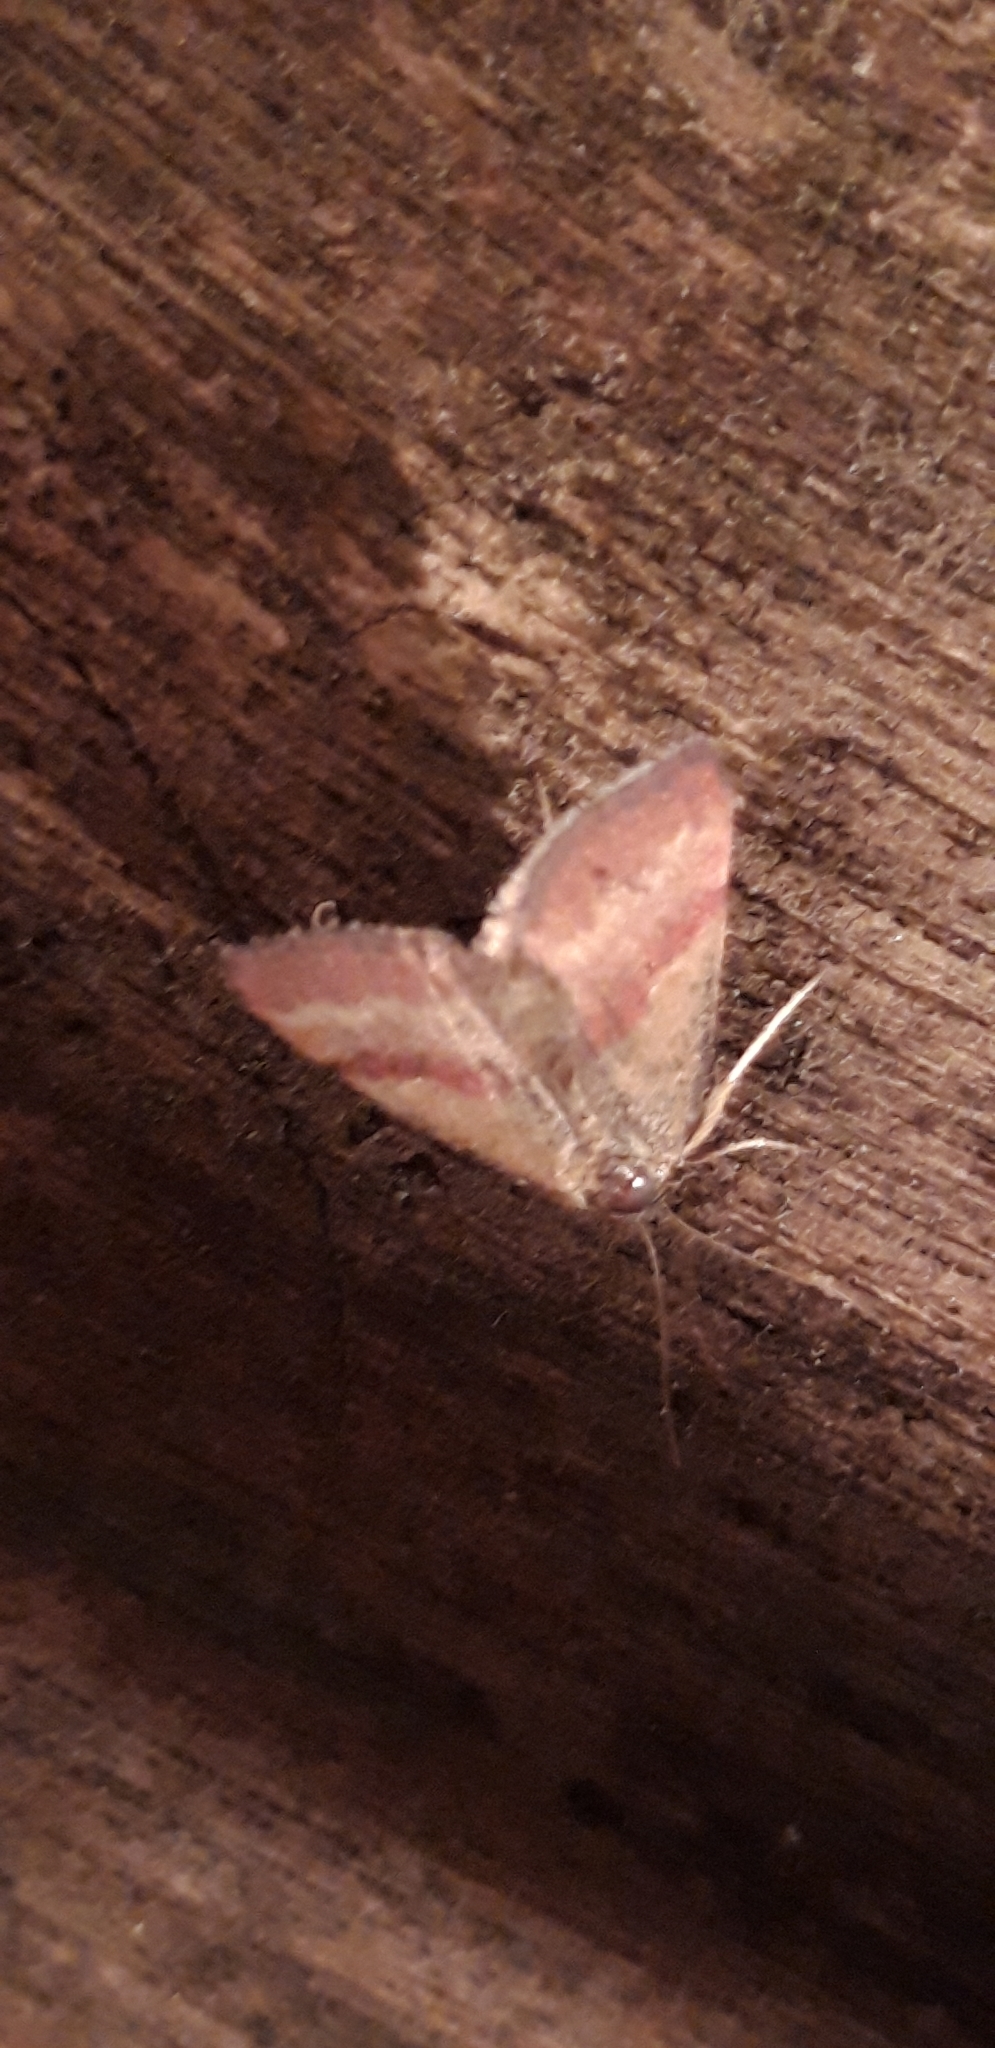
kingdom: Animalia
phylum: Arthropoda
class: Insecta
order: Lepidoptera
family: Erebidae
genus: Phytometra
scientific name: Phytometra viridaria
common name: Small purple-barred
